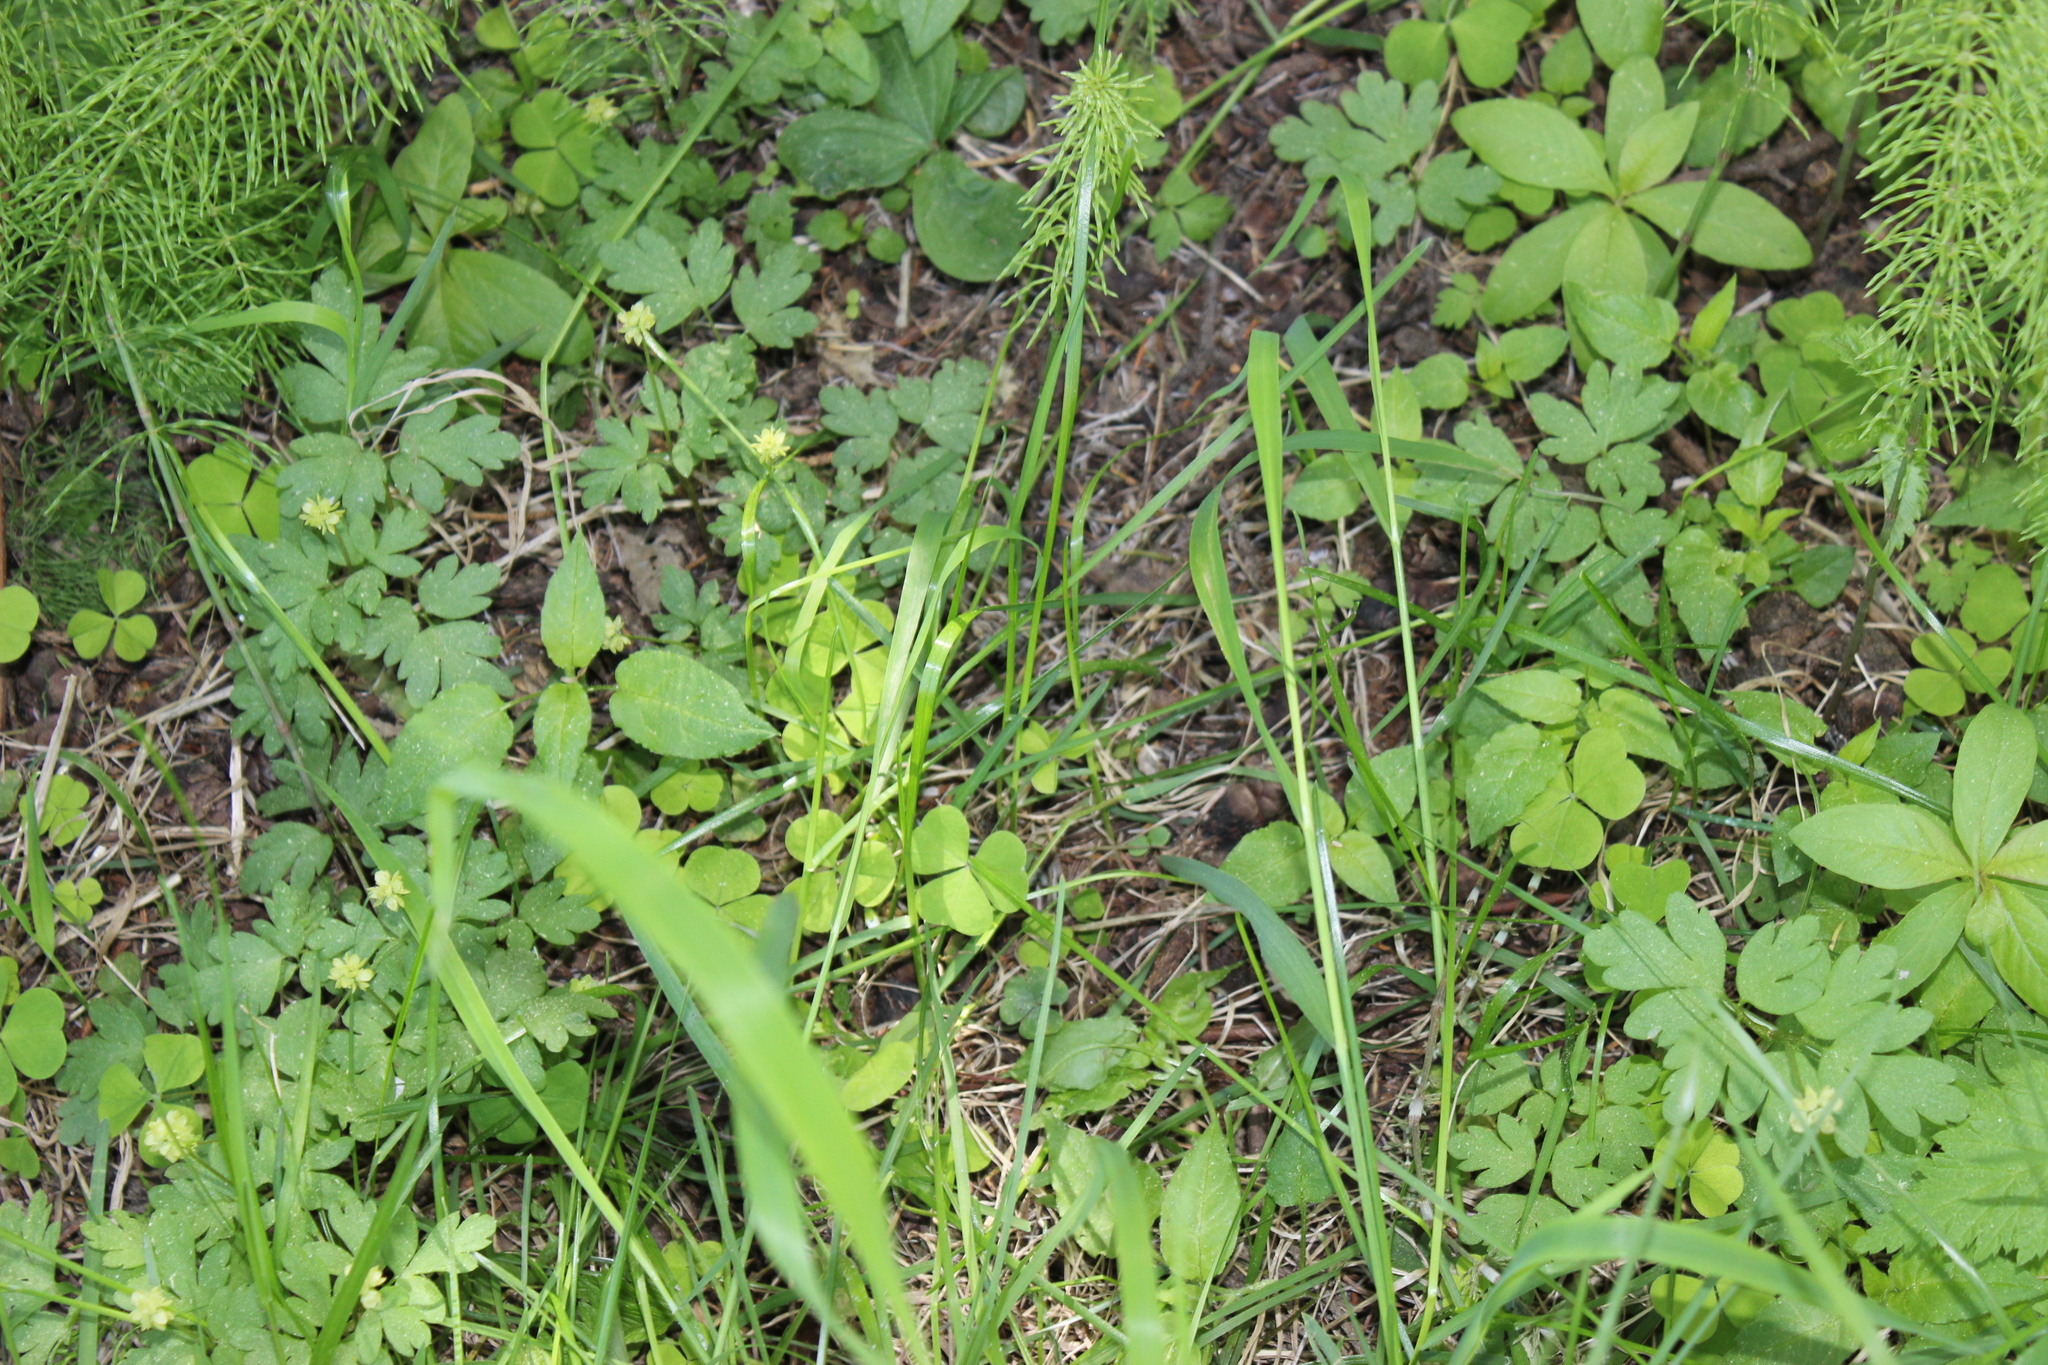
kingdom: Plantae
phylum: Tracheophyta
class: Magnoliopsida
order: Dipsacales
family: Viburnaceae
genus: Adoxa
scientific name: Adoxa moschatellina
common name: Moschatel
